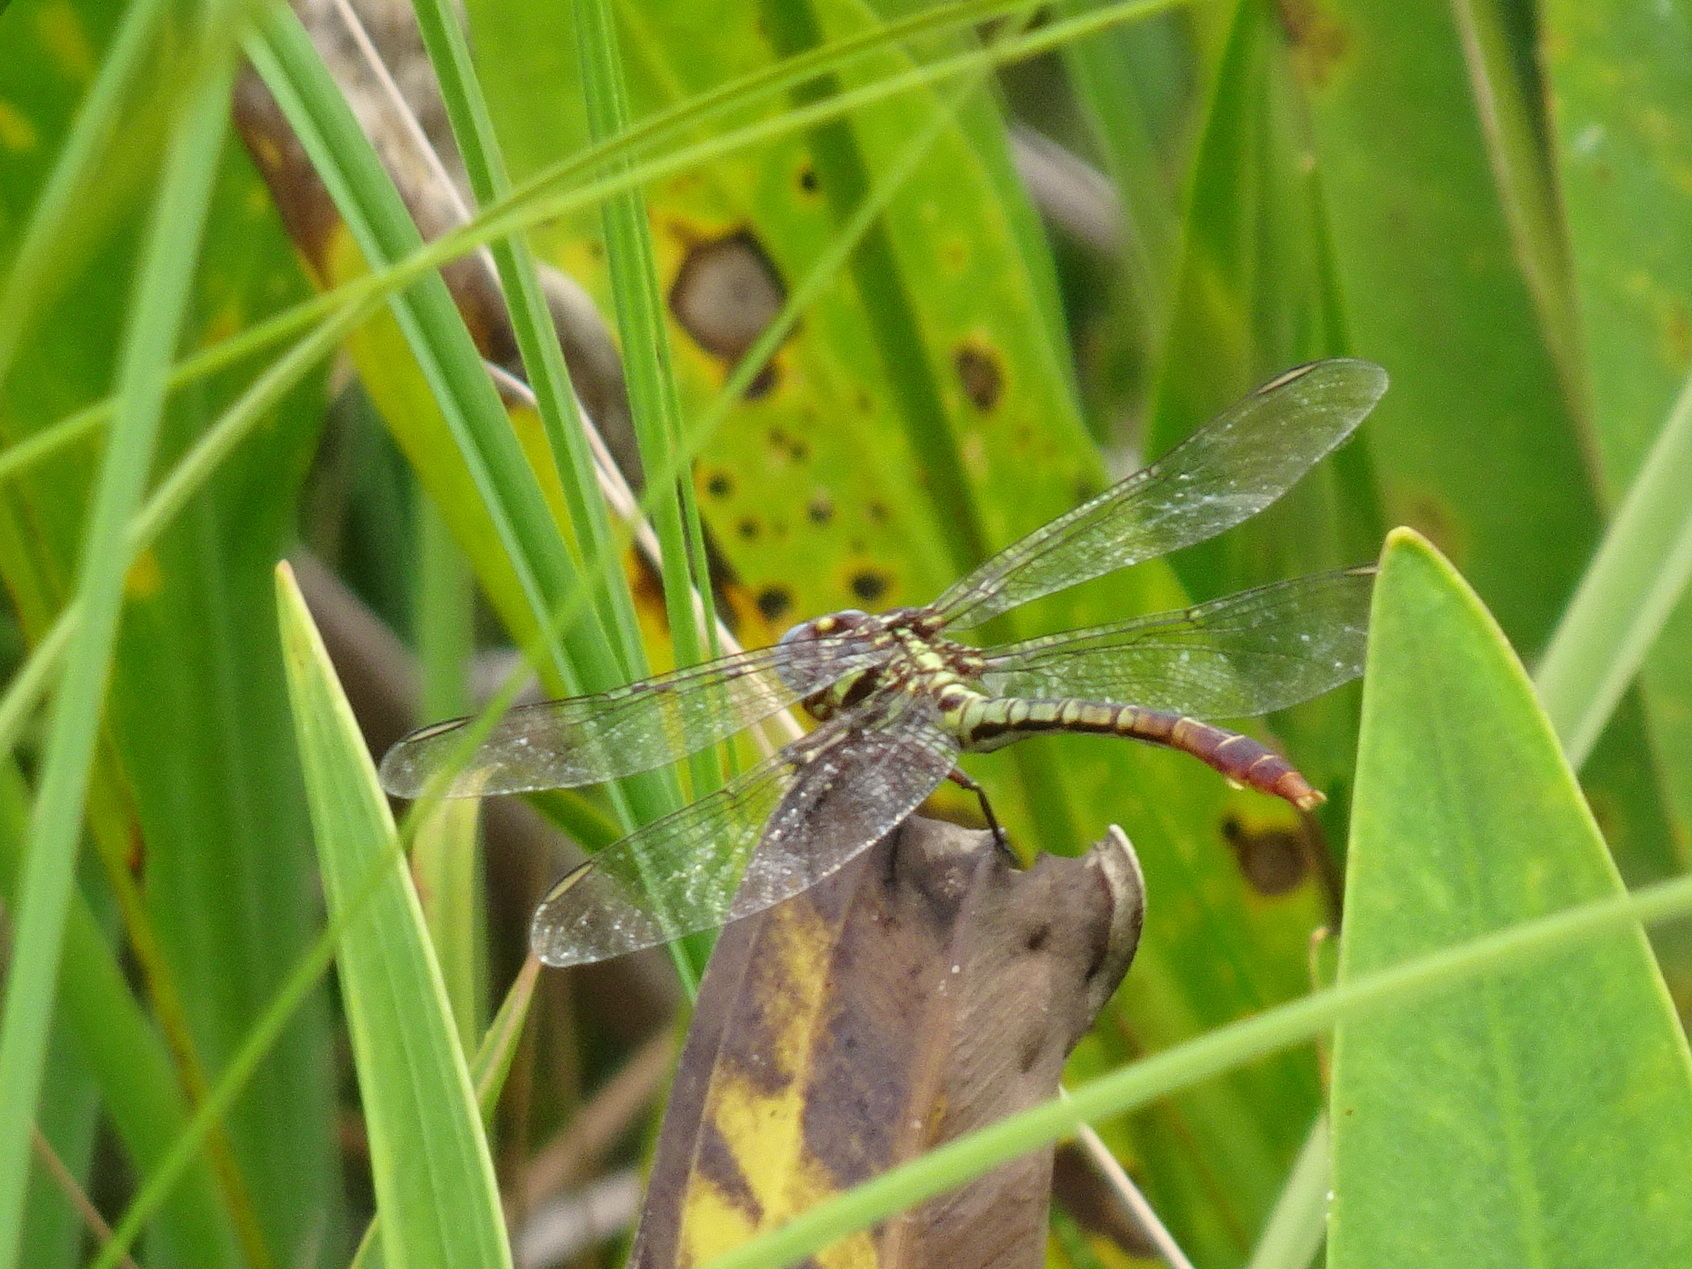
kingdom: Animalia
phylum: Arthropoda
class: Insecta
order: Odonata
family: Gomphidae
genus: Aphylla
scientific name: Aphylla williamsoni
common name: Two-striped forceptail
